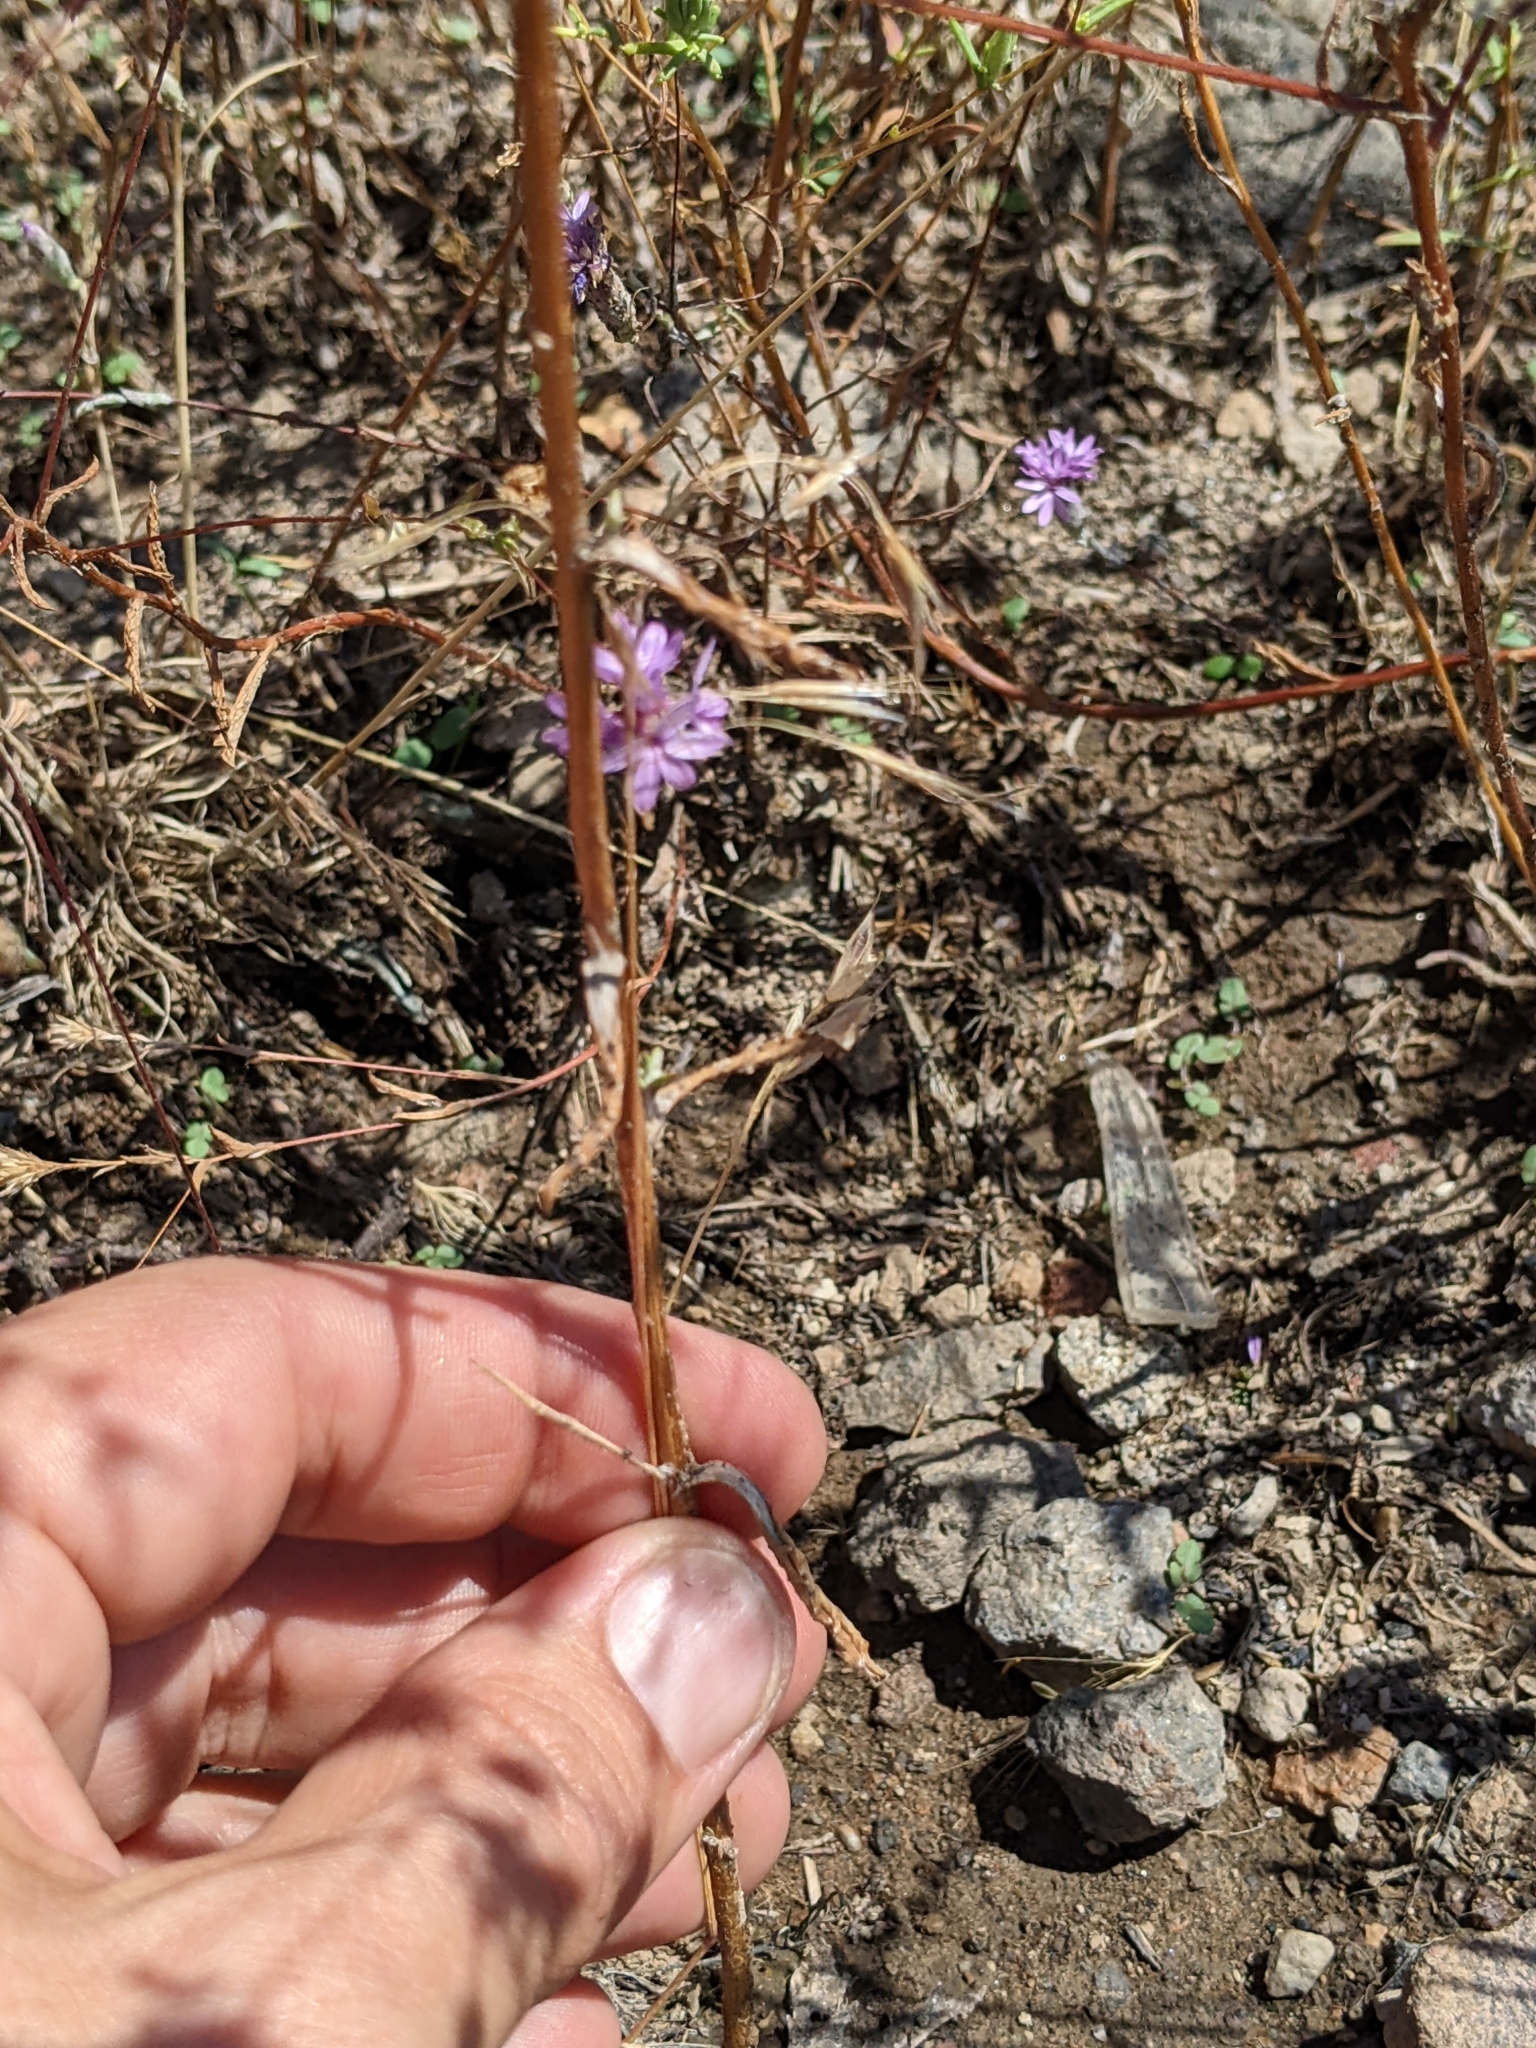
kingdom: Plantae
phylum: Tracheophyta
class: Magnoliopsida
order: Asterales
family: Asteraceae
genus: Lessingia
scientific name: Lessingia leptoclada
